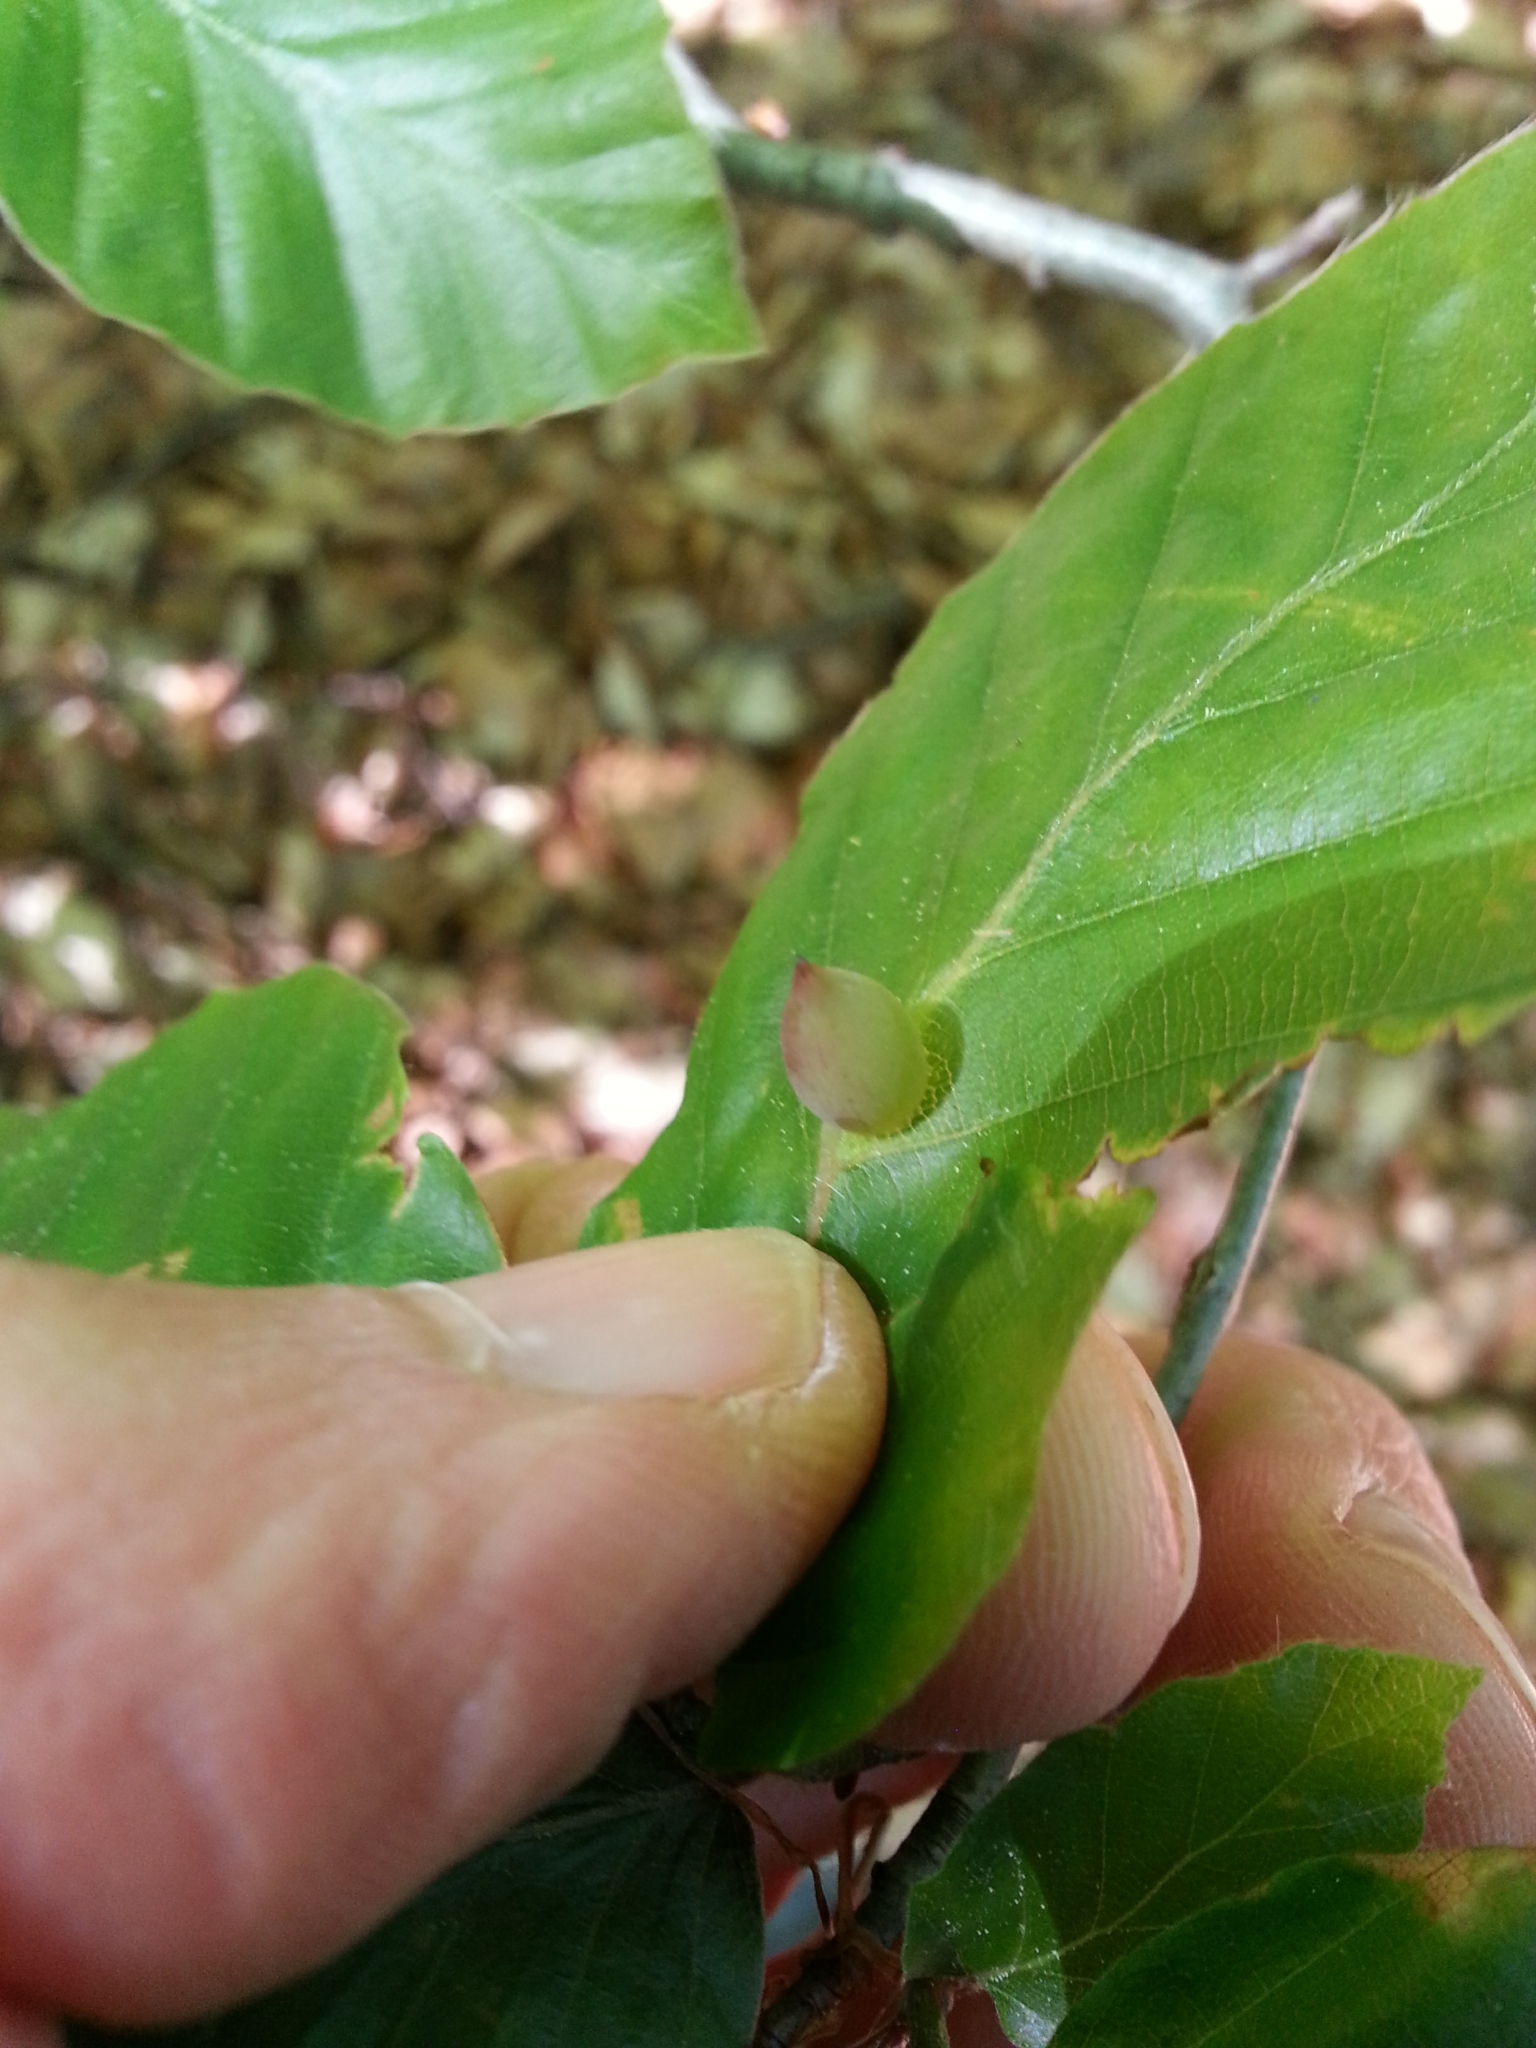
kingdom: Animalia
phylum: Arthropoda
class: Insecta
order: Diptera
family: Cecidomyiidae
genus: Mikiola
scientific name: Mikiola fagi
